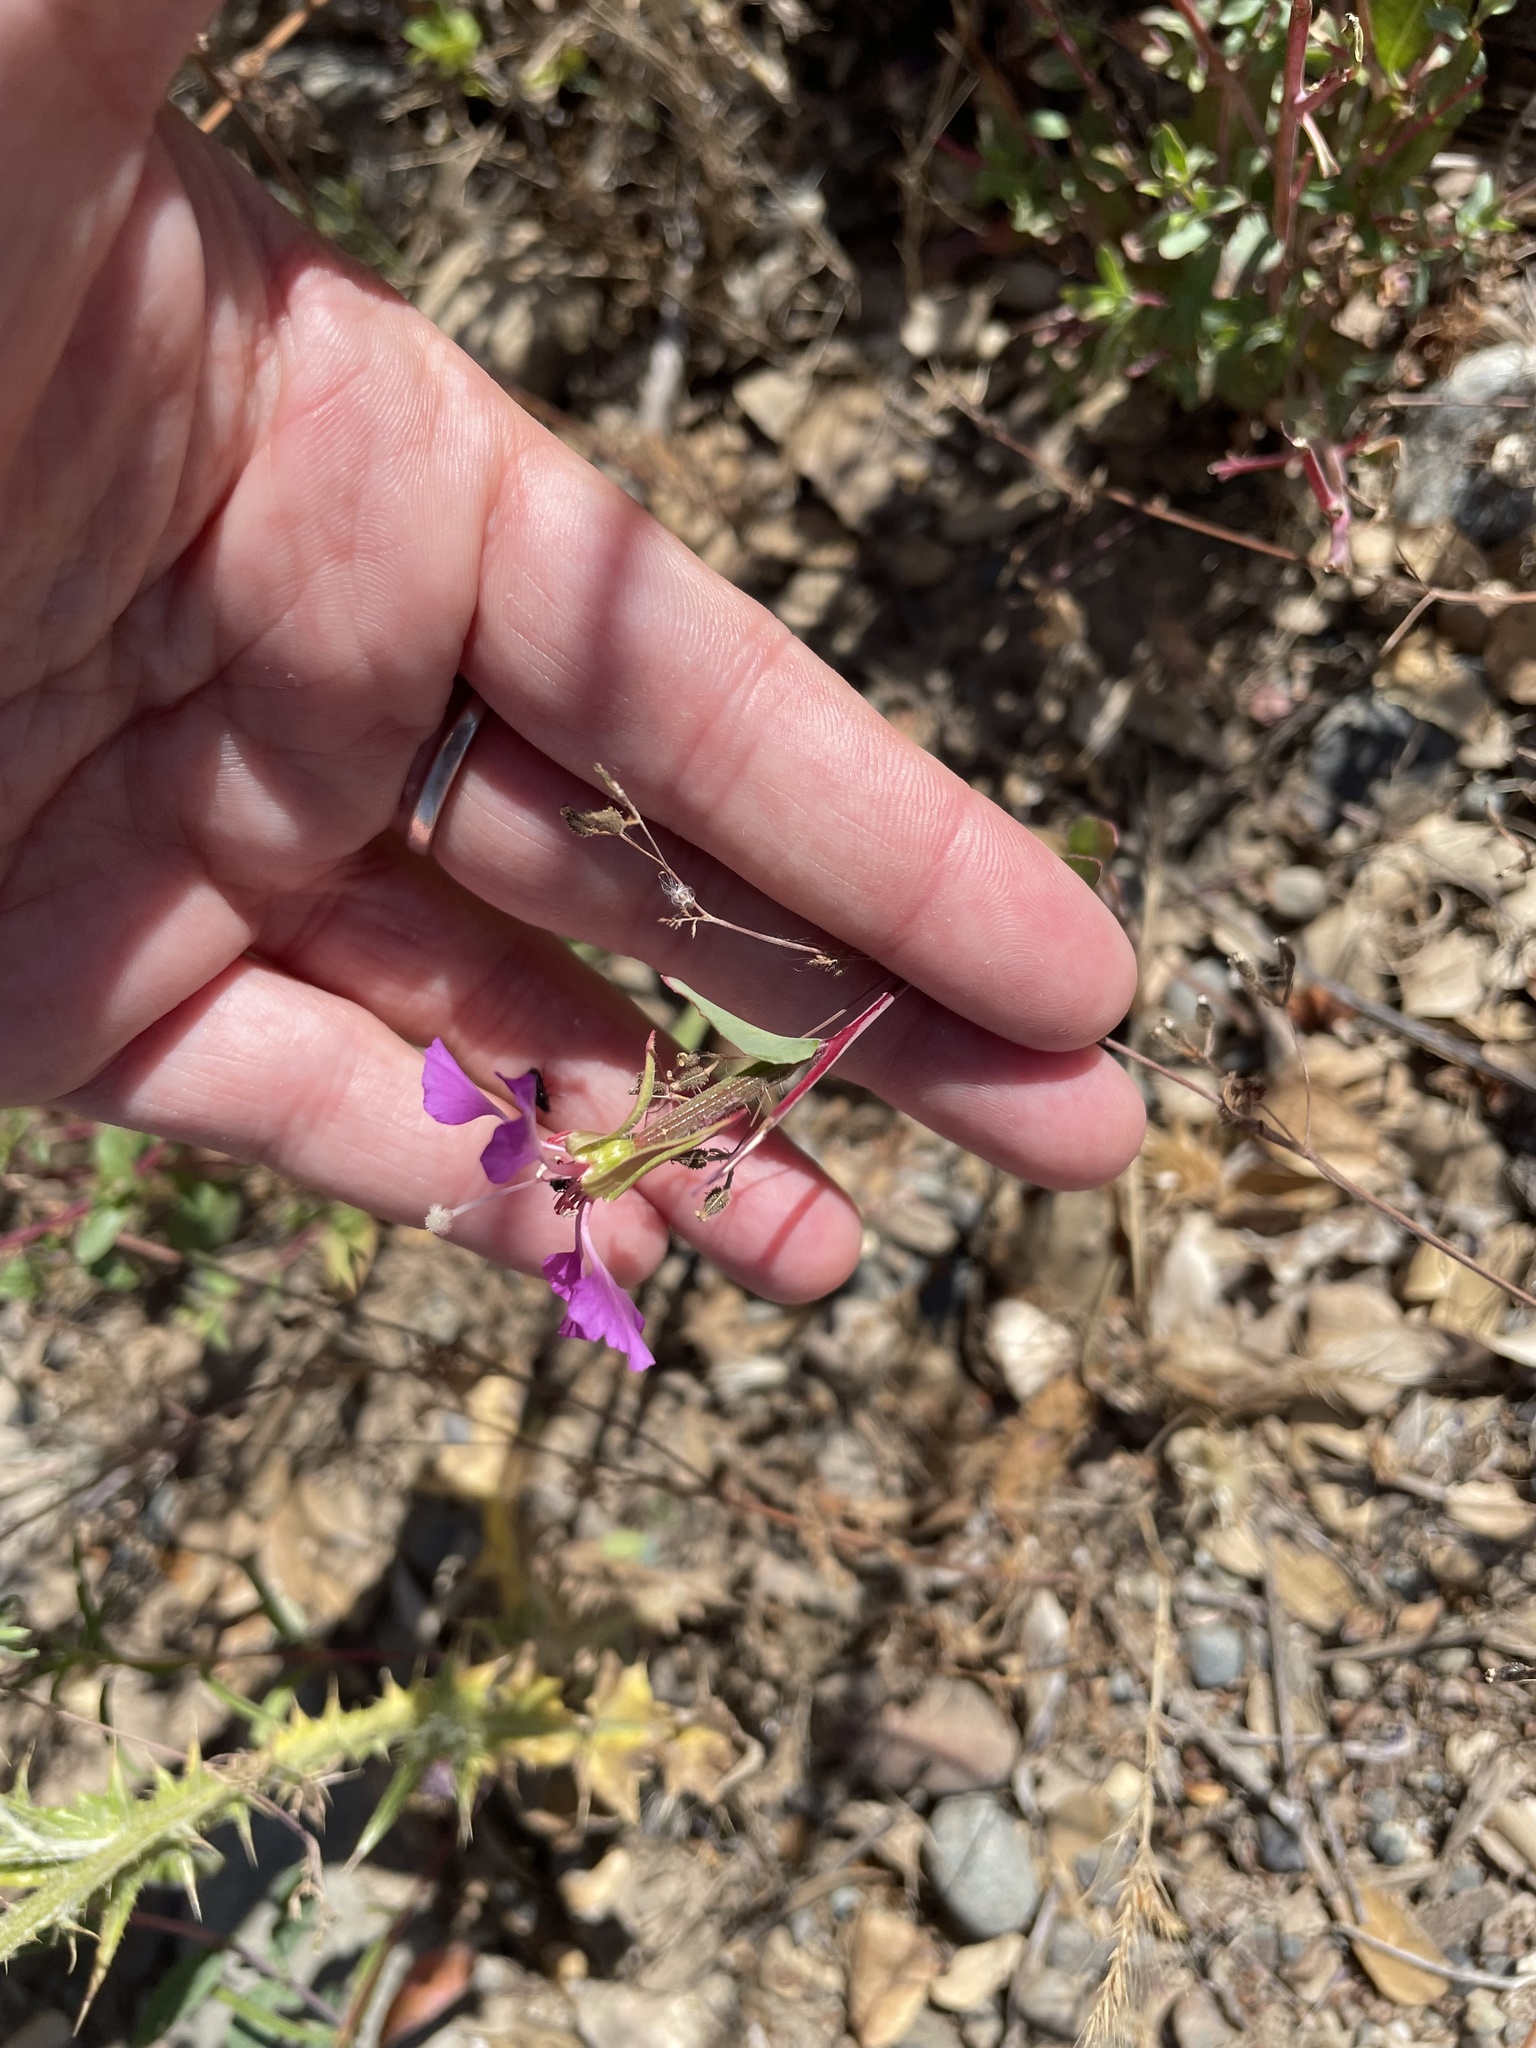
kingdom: Plantae
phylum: Tracheophyta
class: Magnoliopsida
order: Myrtales
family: Onagraceae
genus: Clarkia
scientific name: Clarkia unguiculata
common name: Clarkia
